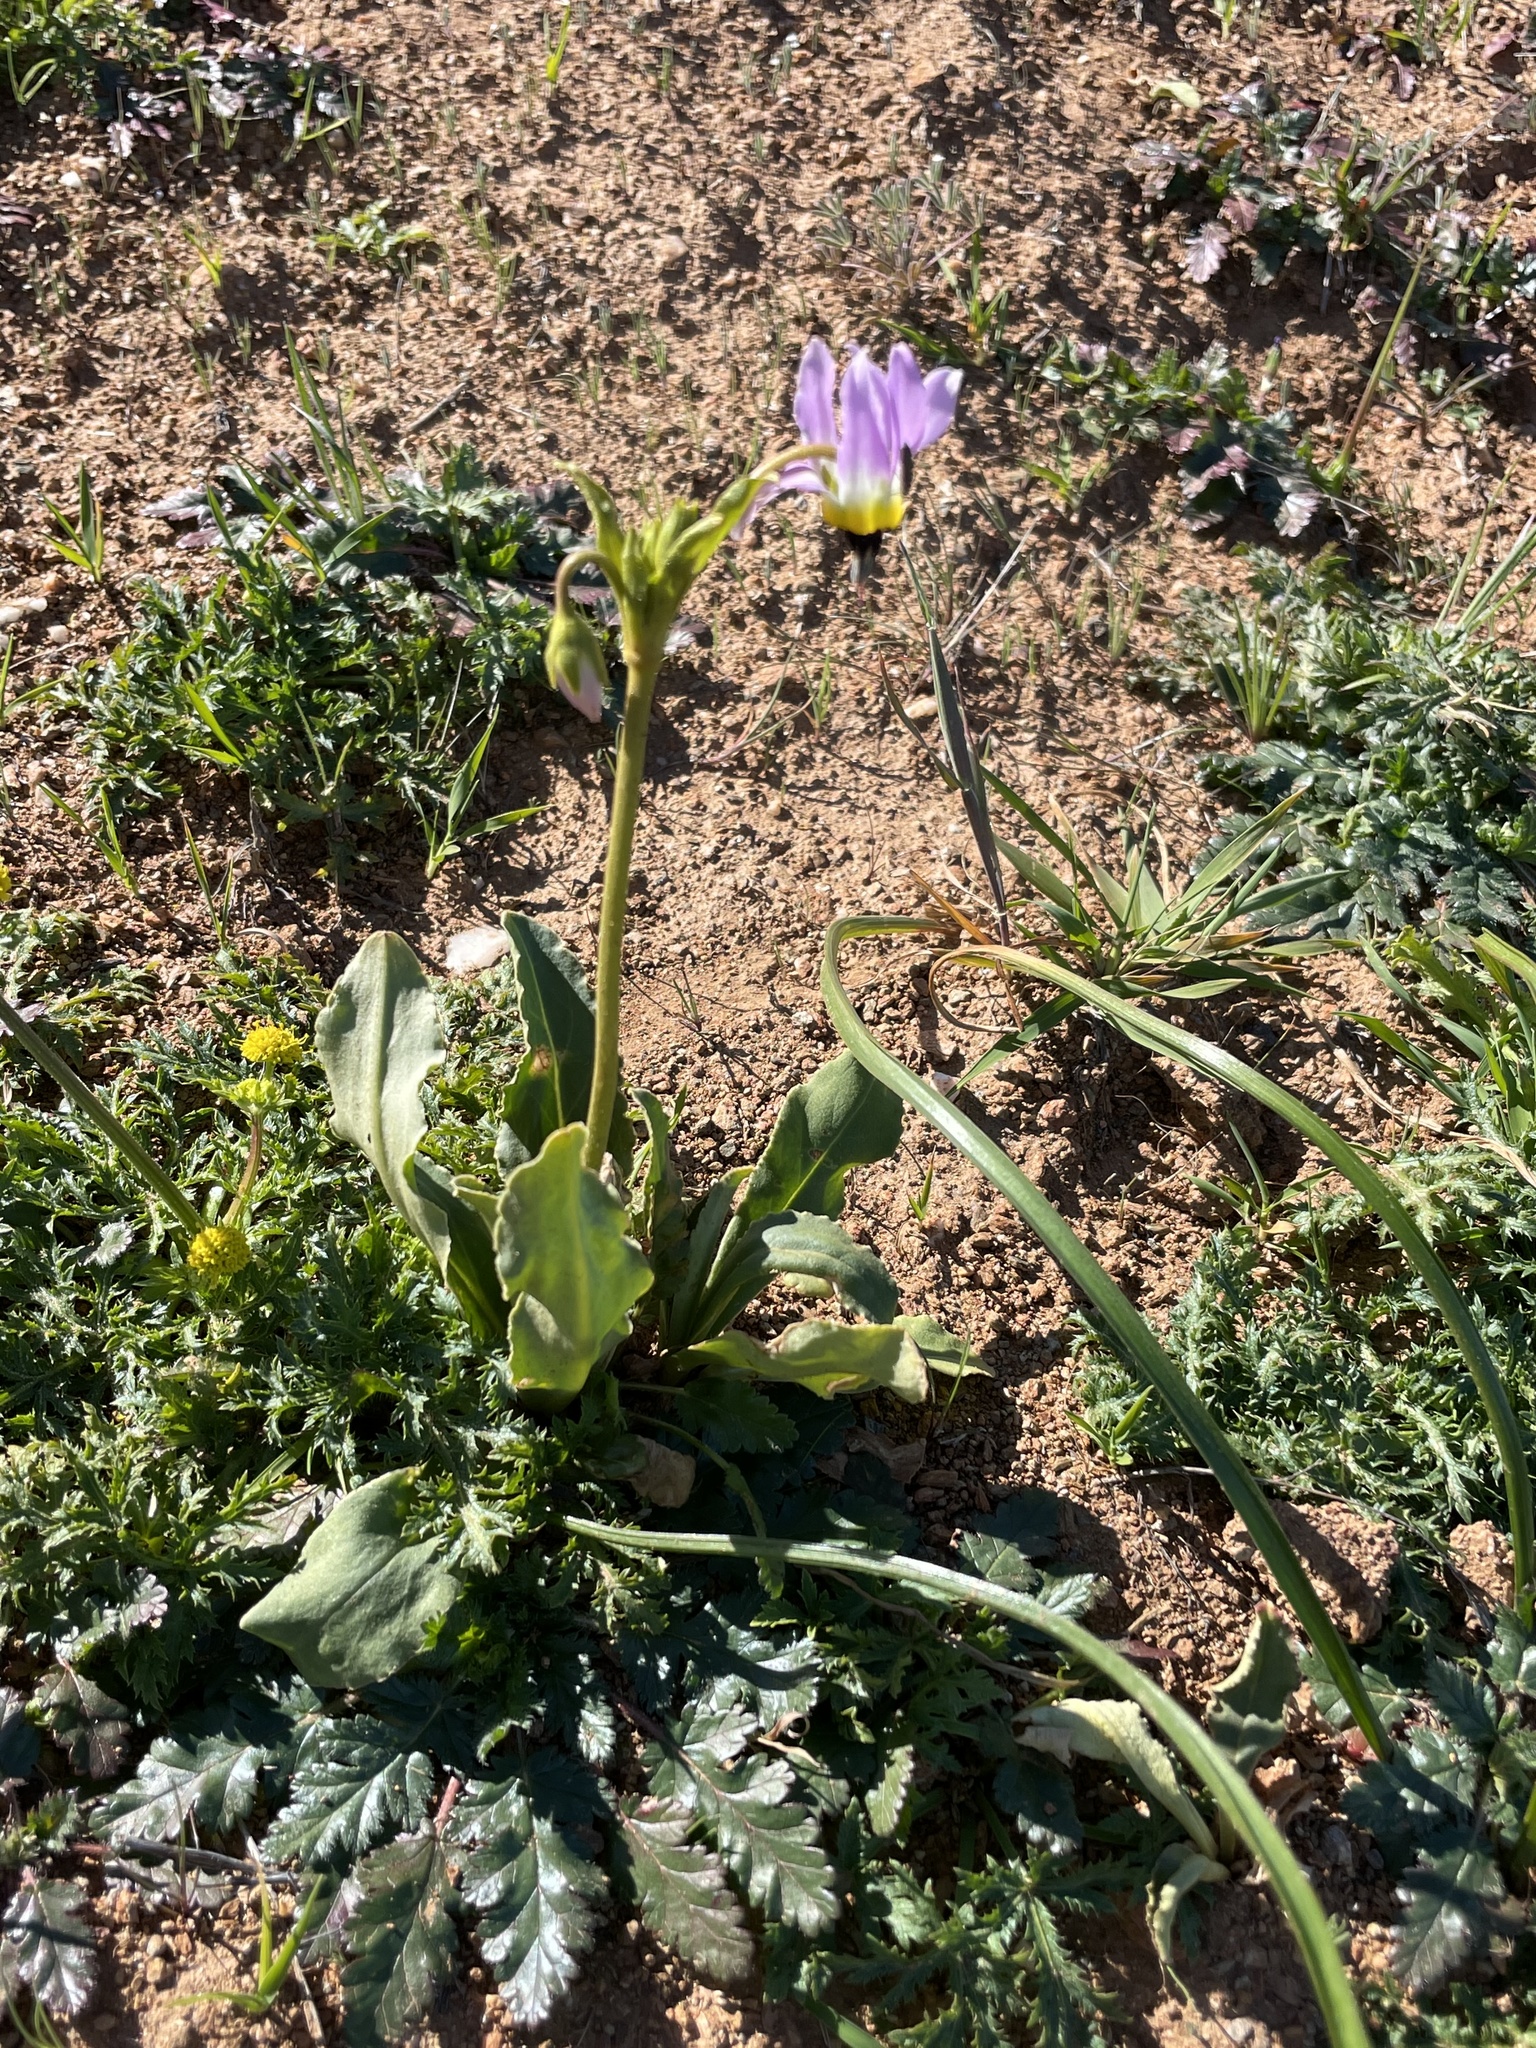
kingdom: Plantae
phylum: Tracheophyta
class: Magnoliopsida
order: Ericales
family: Primulaceae
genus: Dodecatheon
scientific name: Dodecatheon clevelandii
